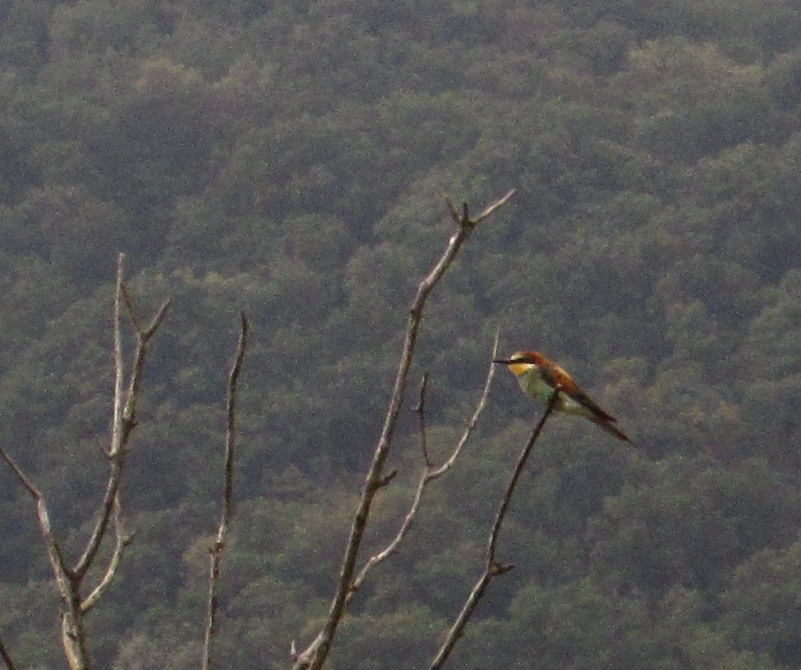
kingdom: Animalia
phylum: Chordata
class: Aves
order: Coraciiformes
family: Meropidae
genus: Merops
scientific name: Merops apiaster
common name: European bee-eater
